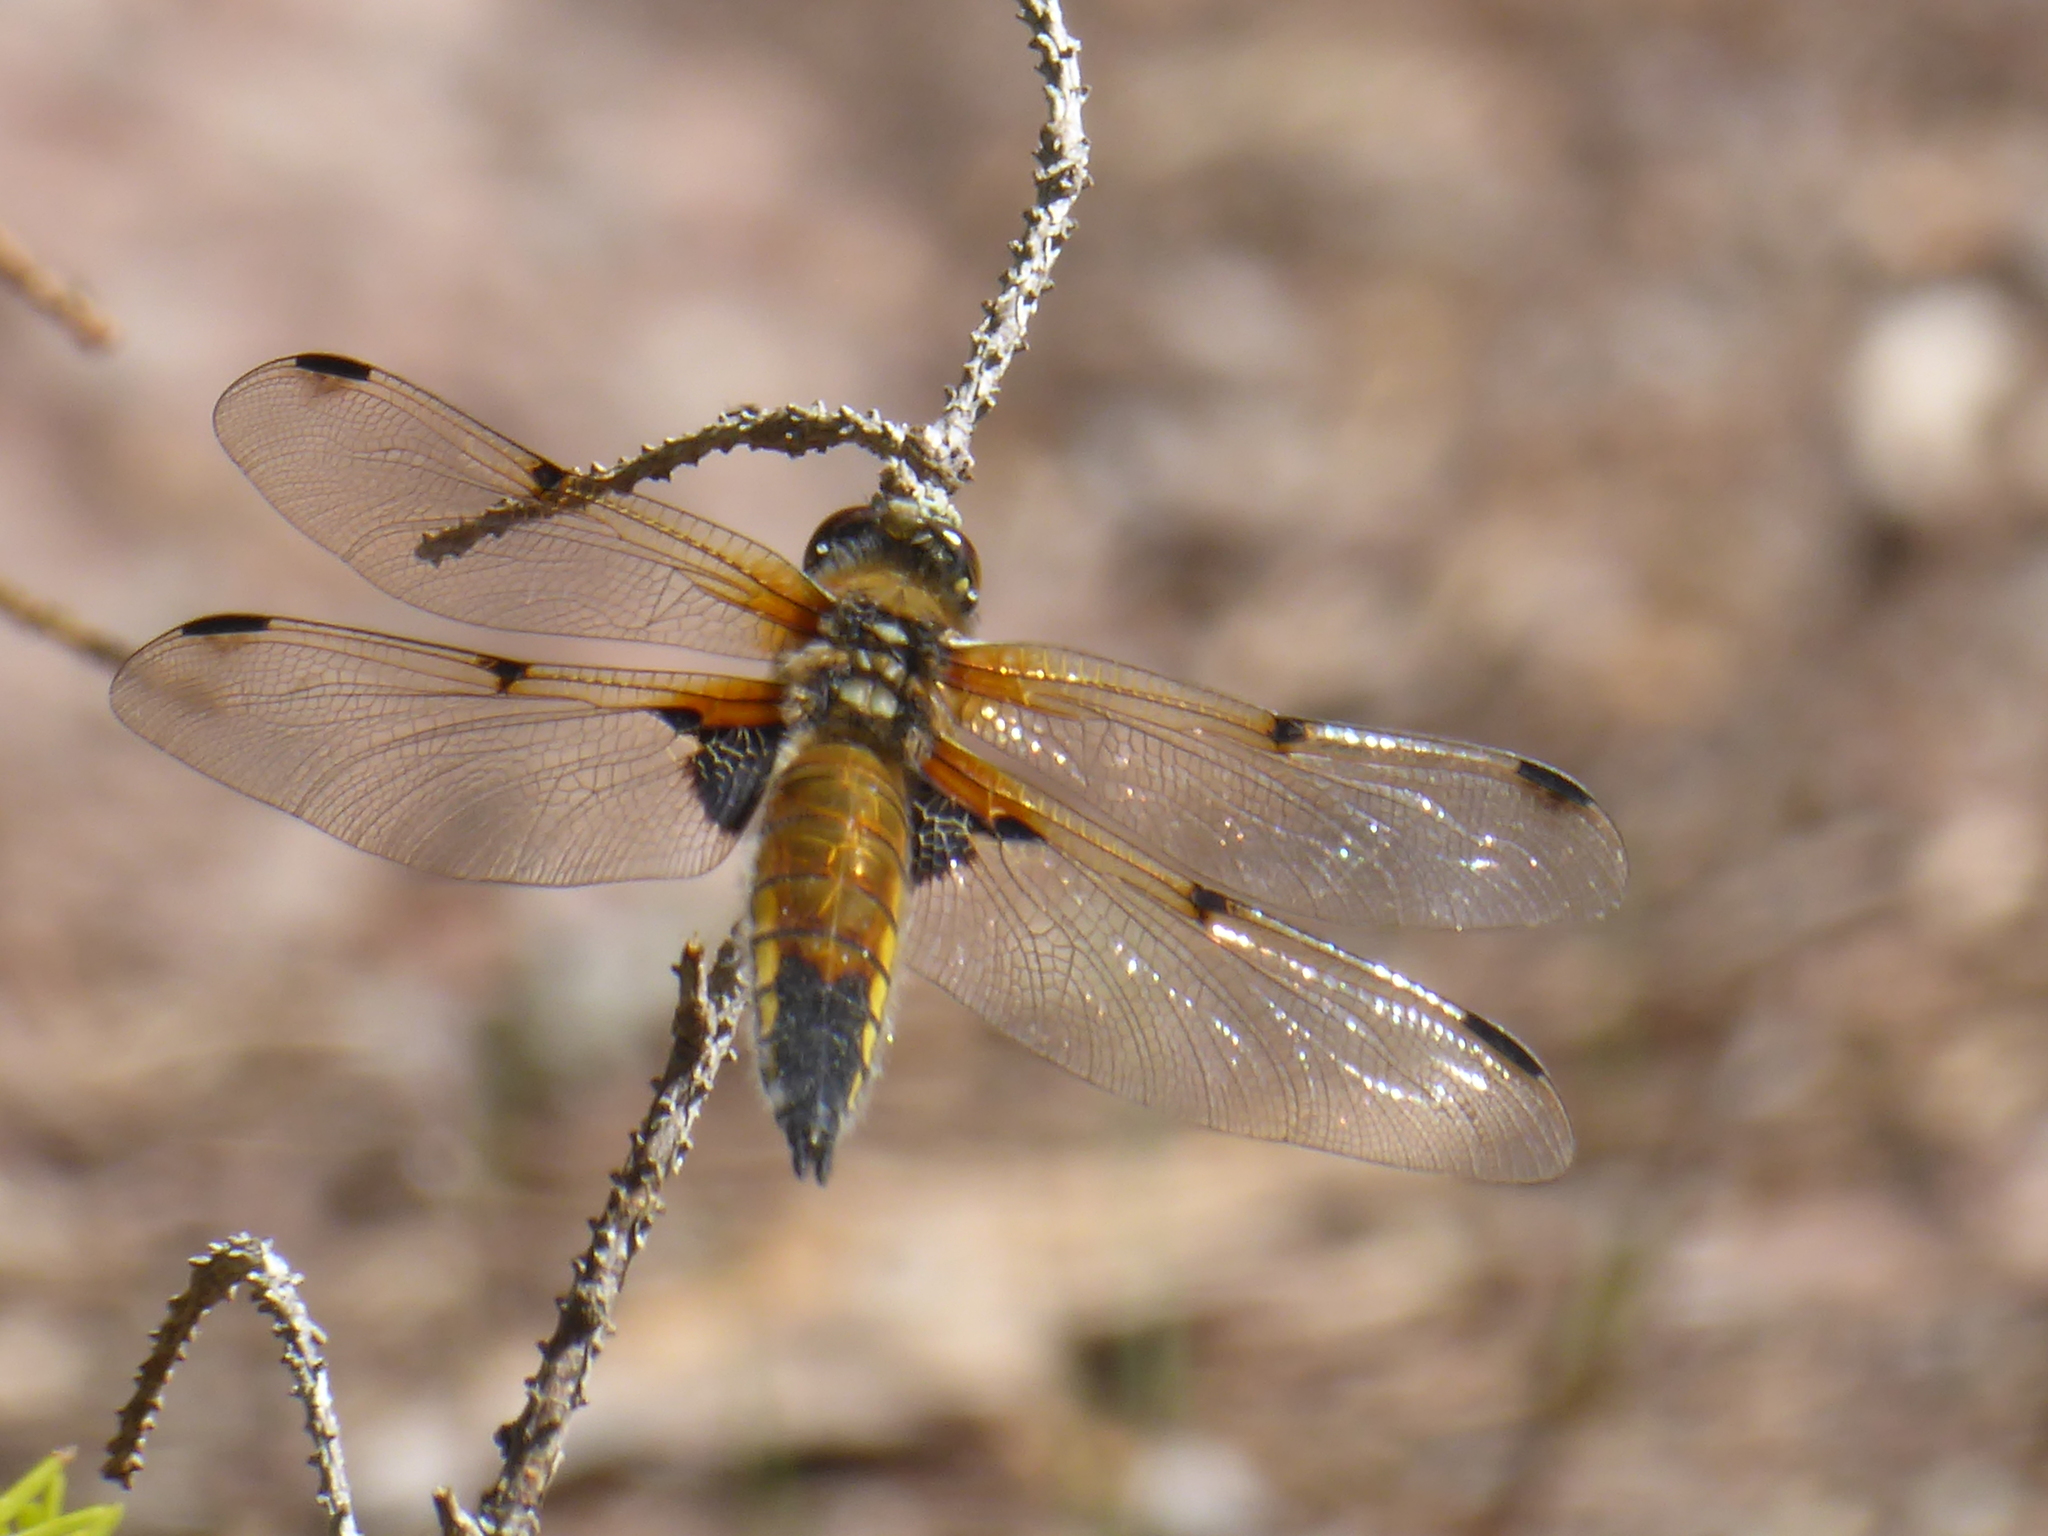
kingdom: Animalia
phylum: Arthropoda
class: Insecta
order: Odonata
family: Libellulidae
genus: Libellula
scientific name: Libellula quadrimaculata
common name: Four-spotted chaser
